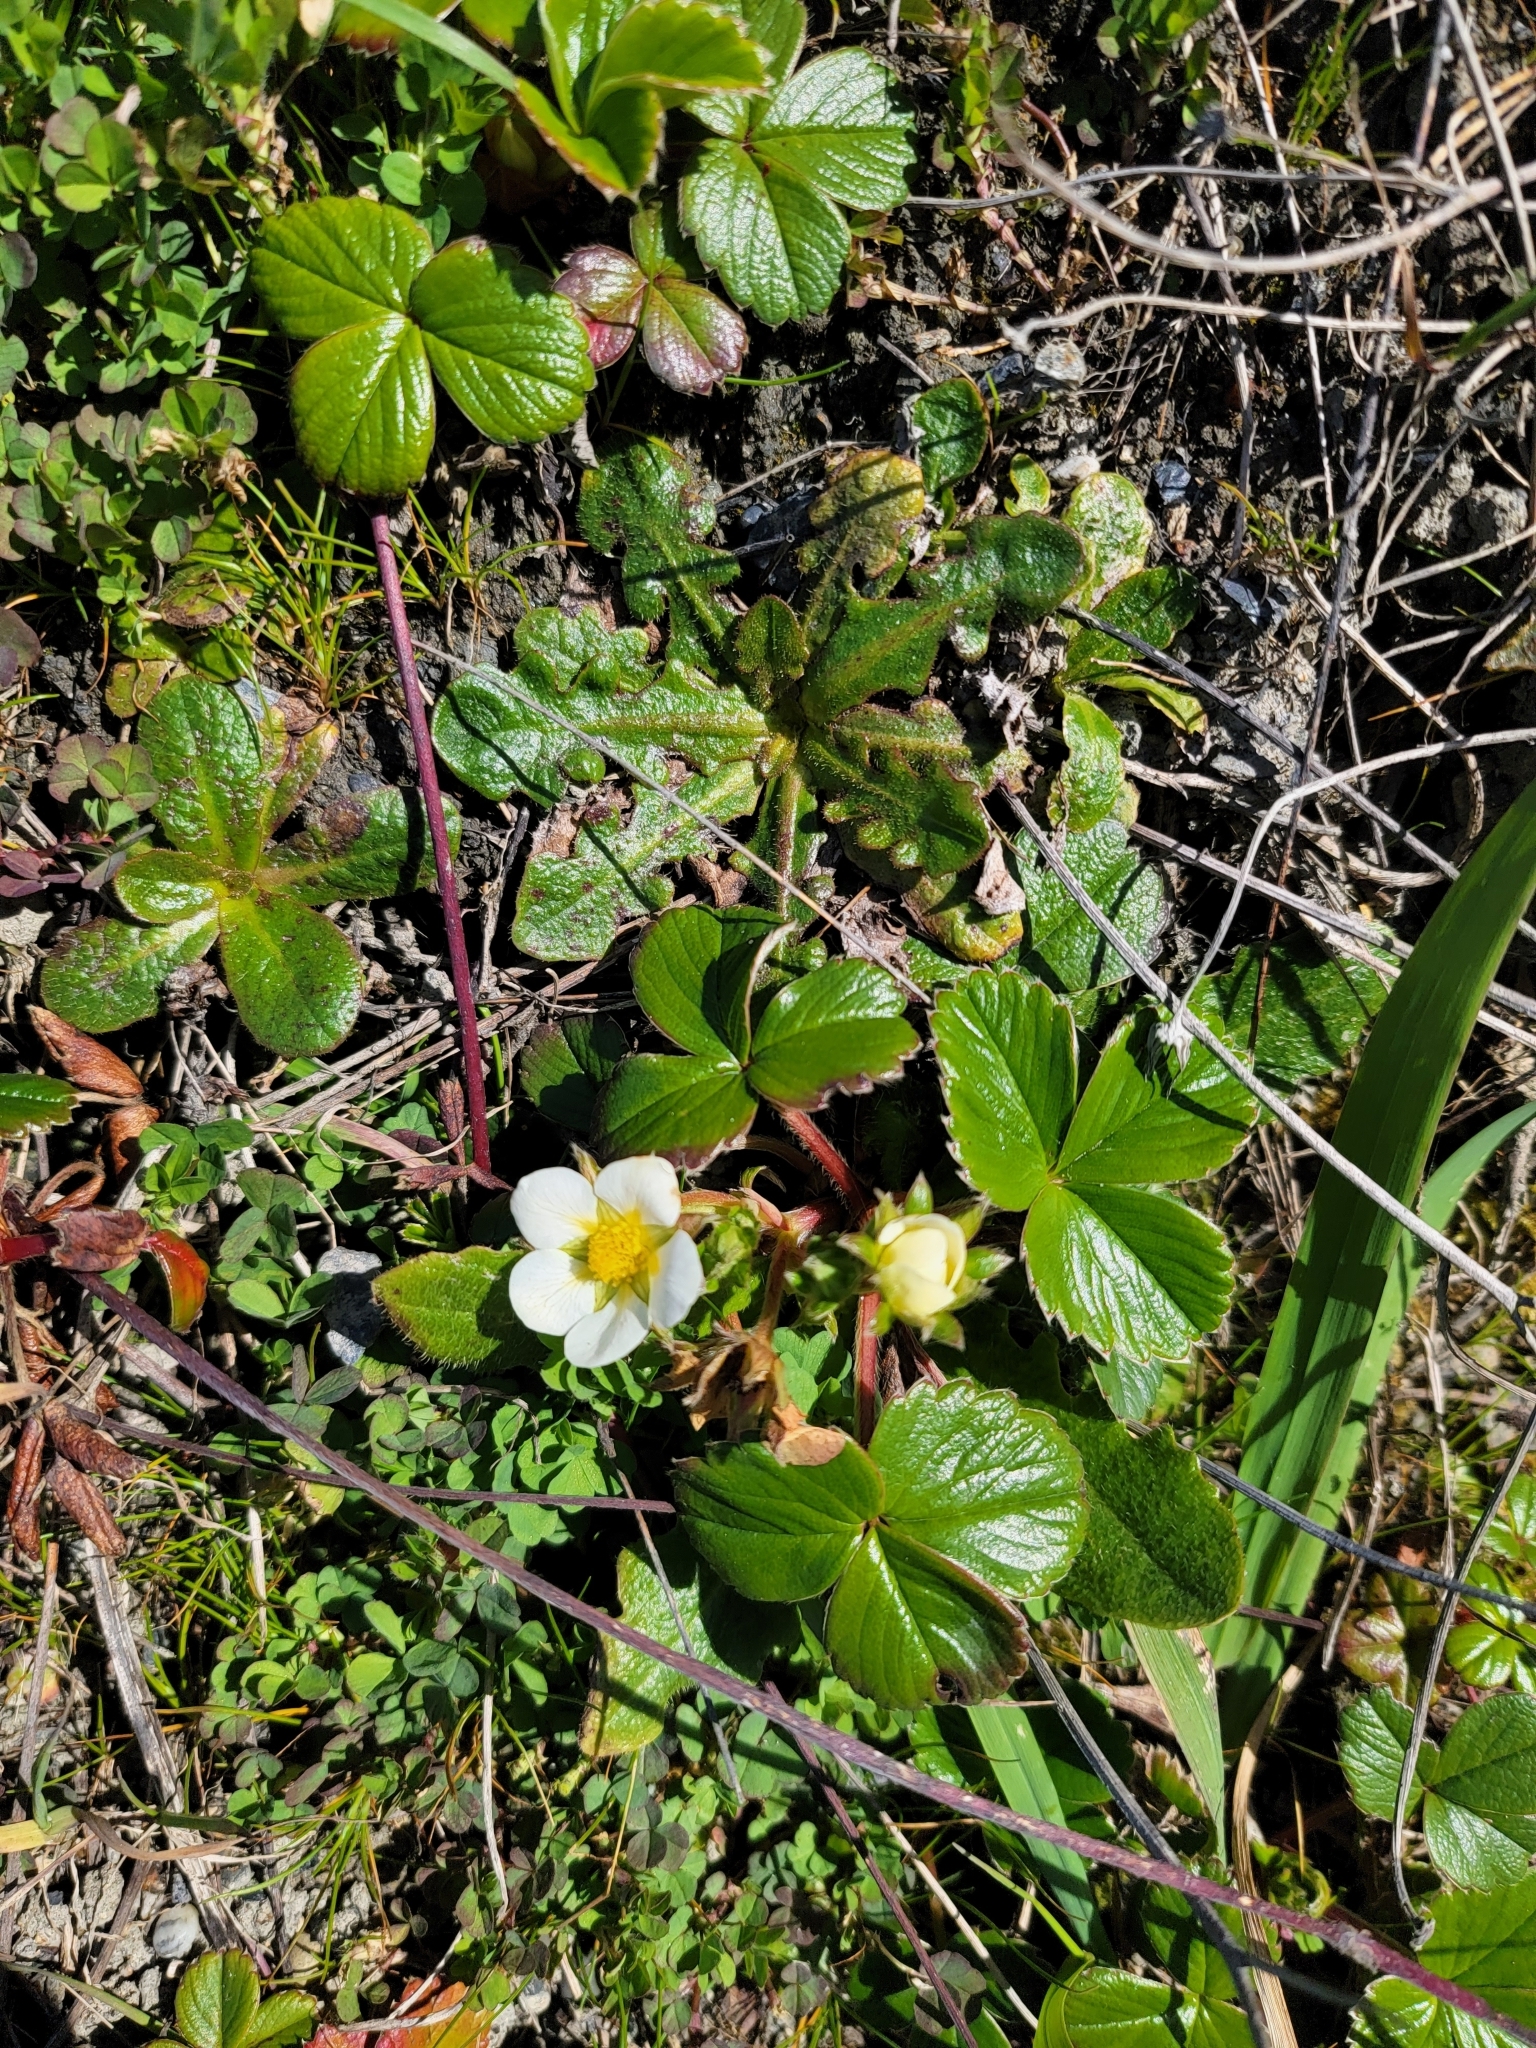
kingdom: Plantae
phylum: Tracheophyta
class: Magnoliopsida
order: Rosales
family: Rosaceae
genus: Fragaria
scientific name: Fragaria chiloensis
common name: Beach strawberry
